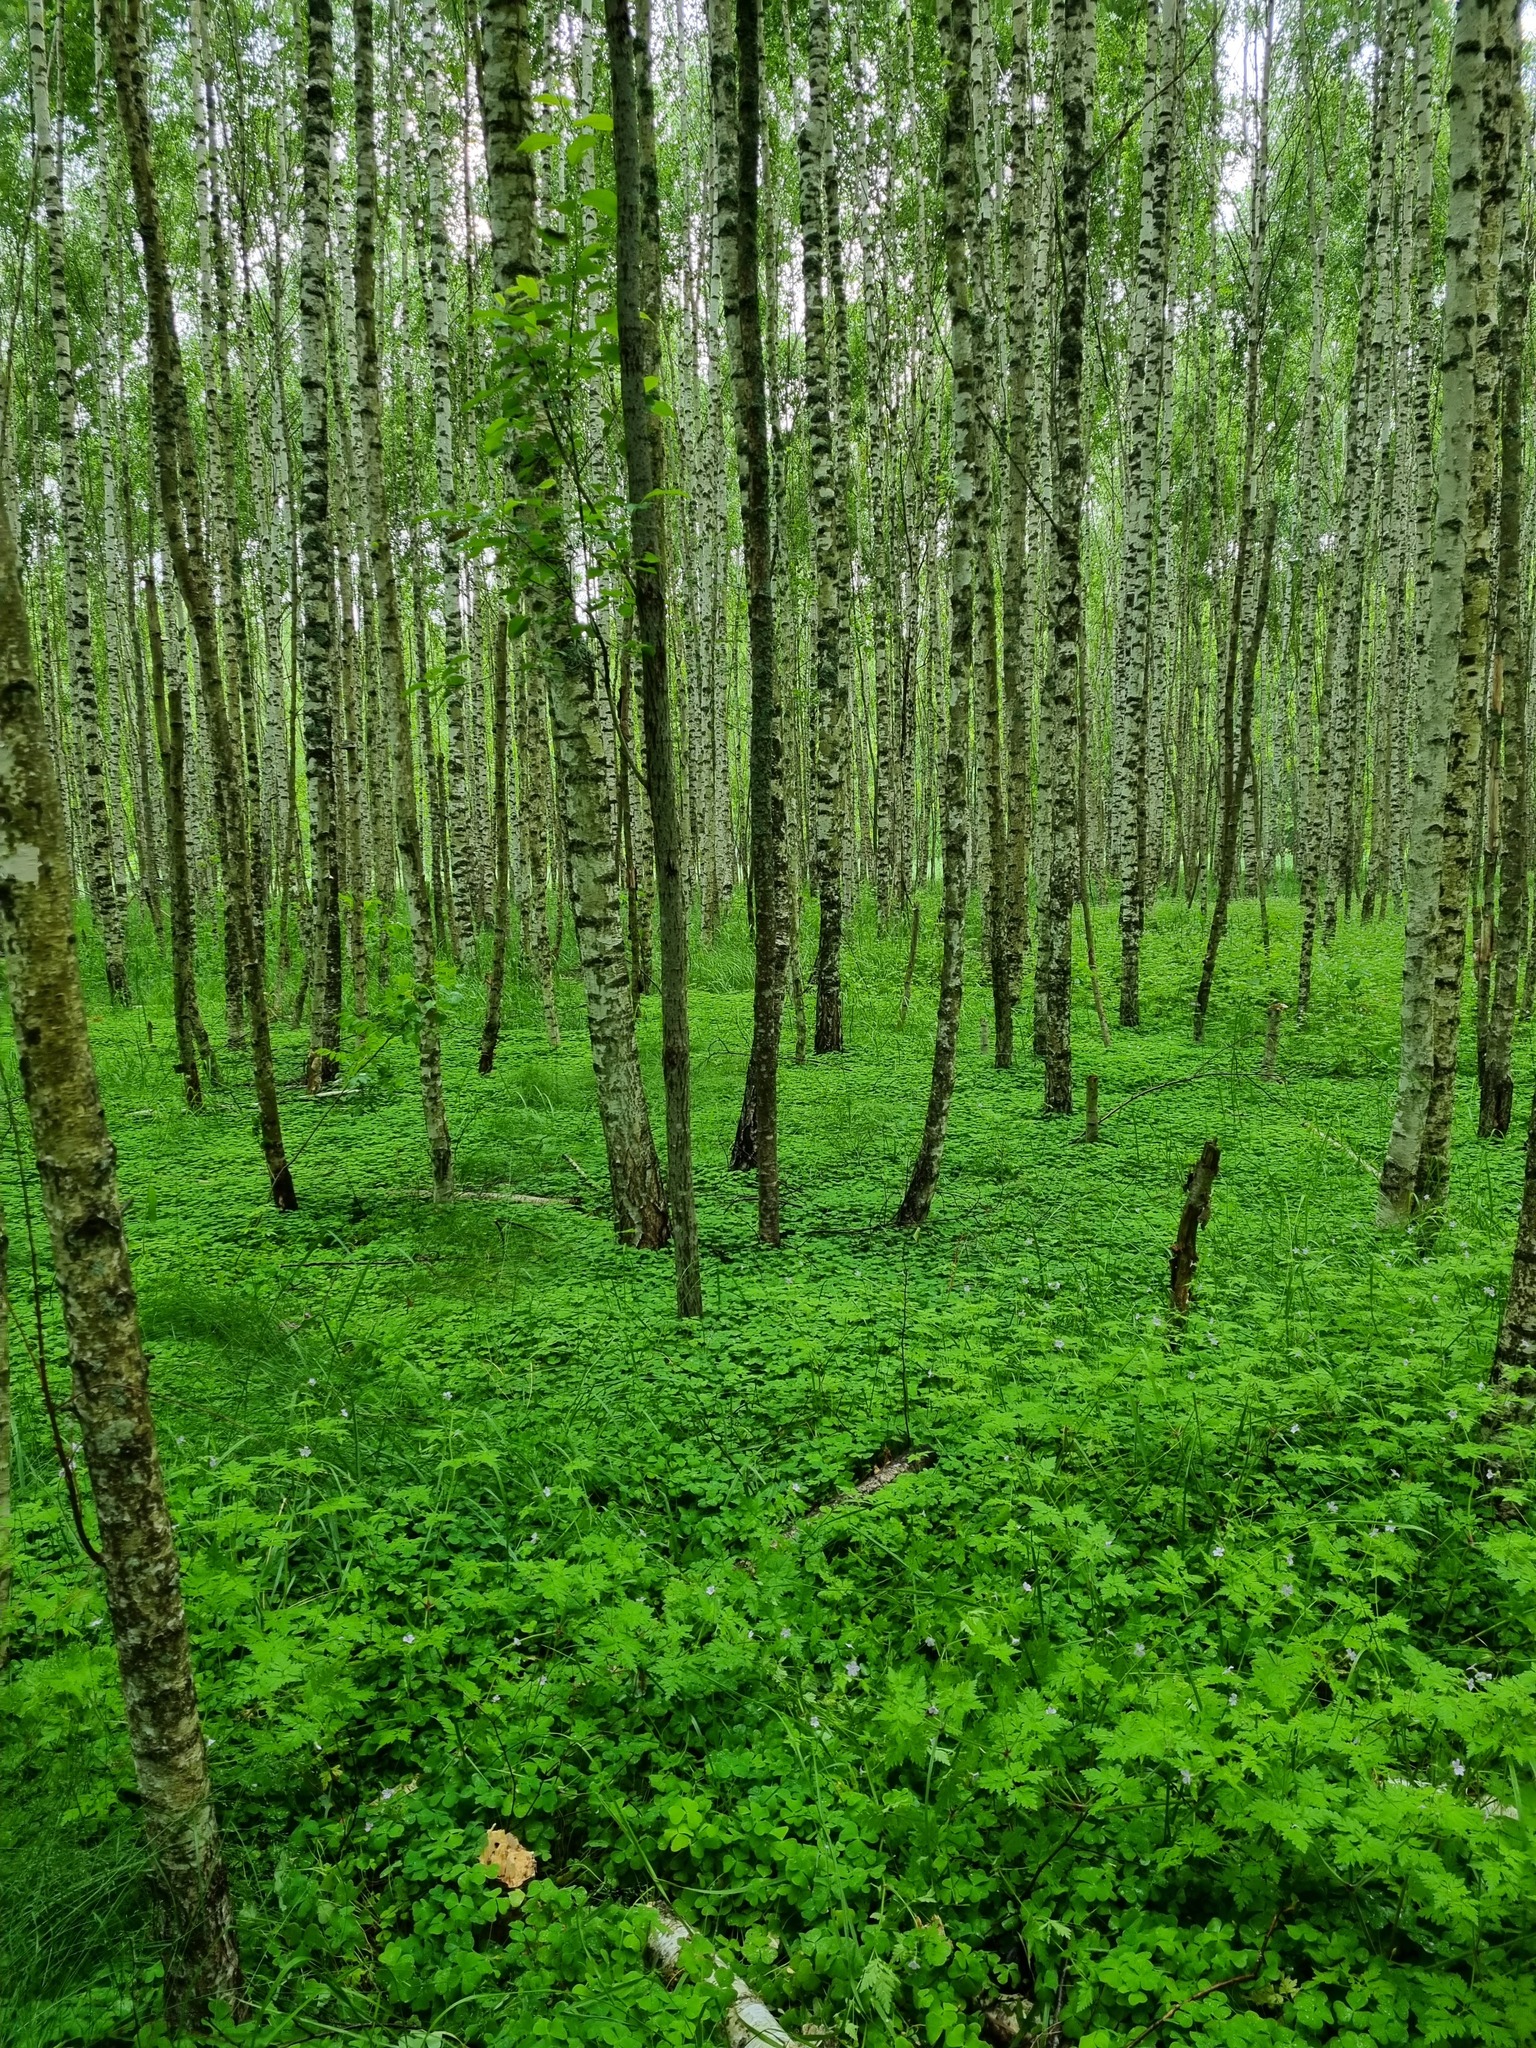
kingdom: Plantae
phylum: Tracheophyta
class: Magnoliopsida
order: Fagales
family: Betulaceae
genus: Betula
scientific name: Betula pendula
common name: Silver birch
